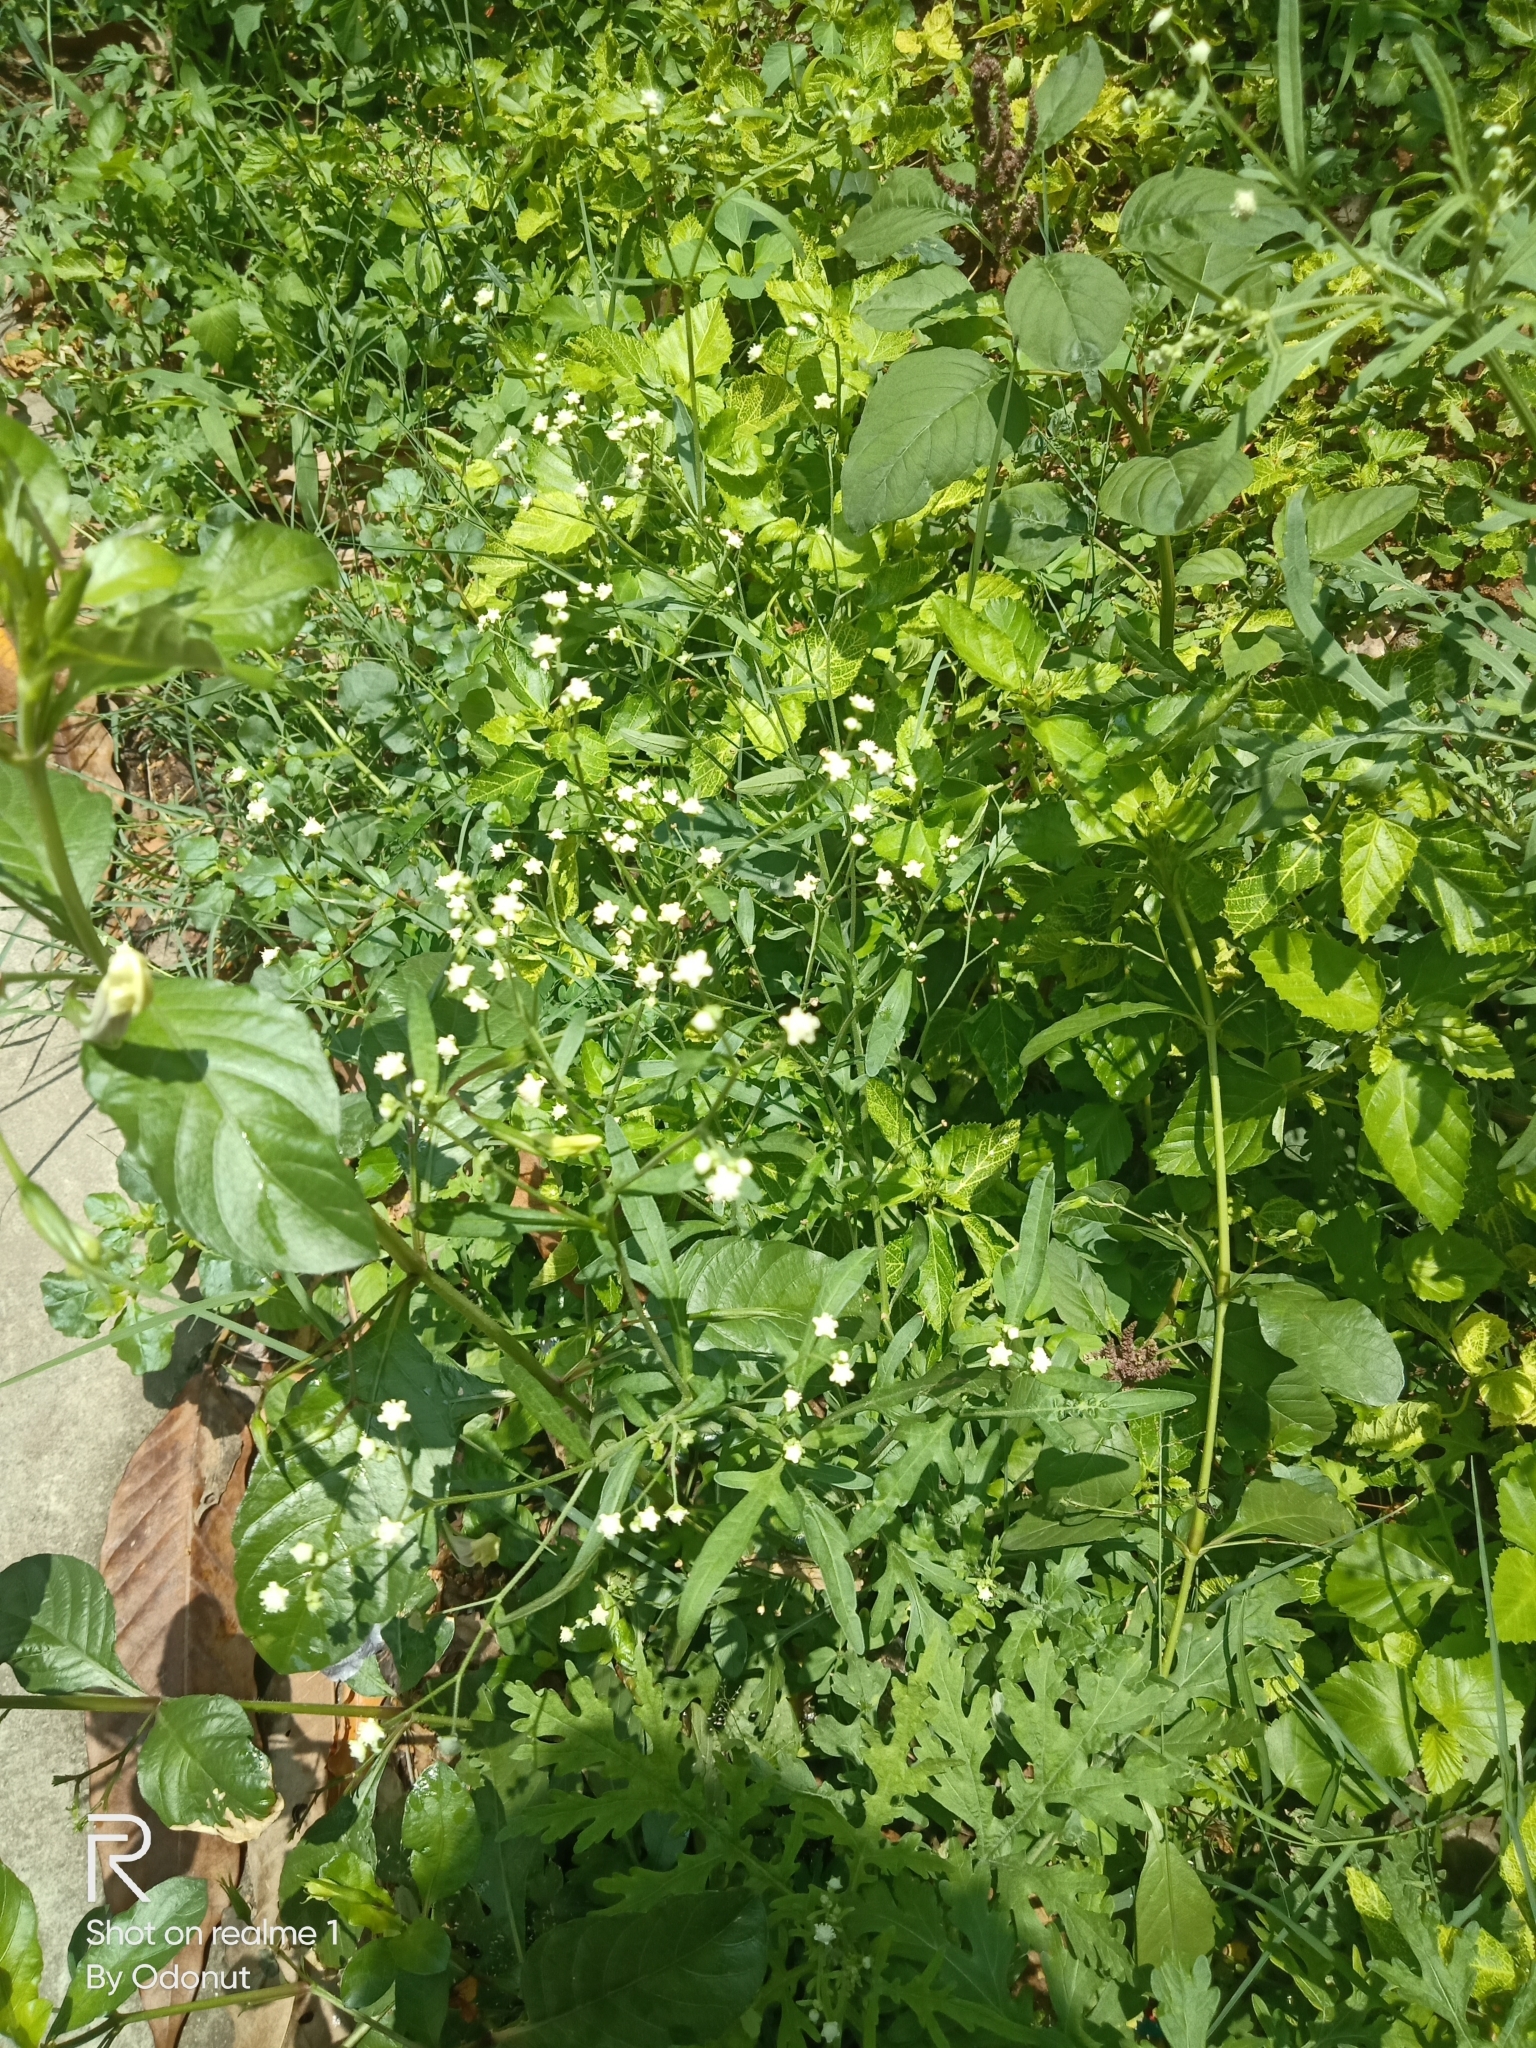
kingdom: Plantae
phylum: Tracheophyta
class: Magnoliopsida
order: Asterales
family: Asteraceae
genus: Parthenium
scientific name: Parthenium hysterophorus
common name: Santa maria feverfew
